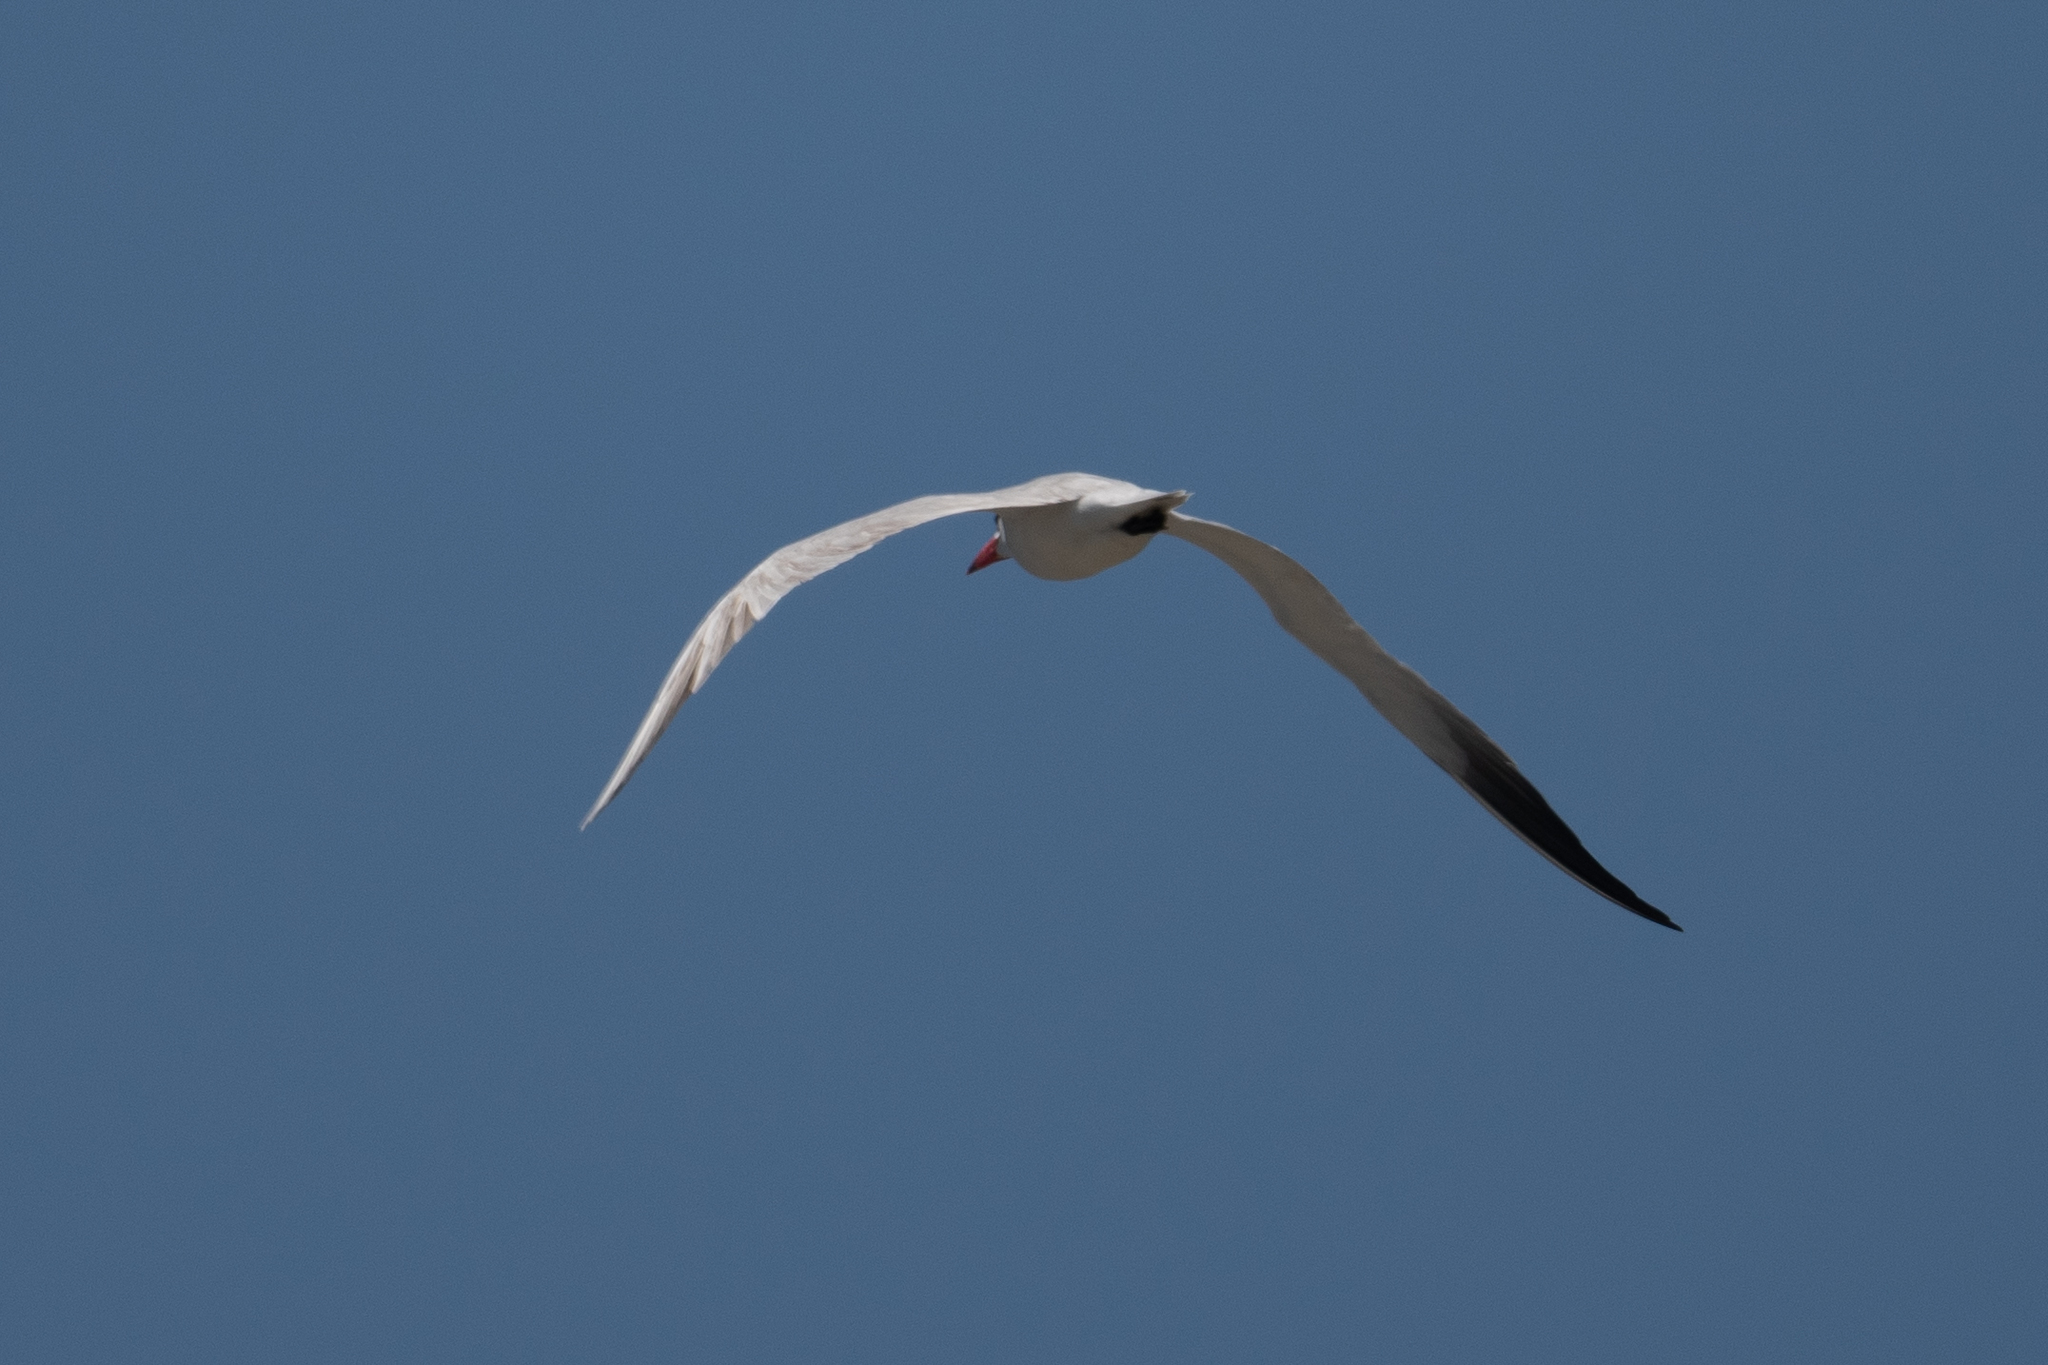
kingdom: Animalia
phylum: Chordata
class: Aves
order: Charadriiformes
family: Laridae
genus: Hydroprogne
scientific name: Hydroprogne caspia
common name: Caspian tern
